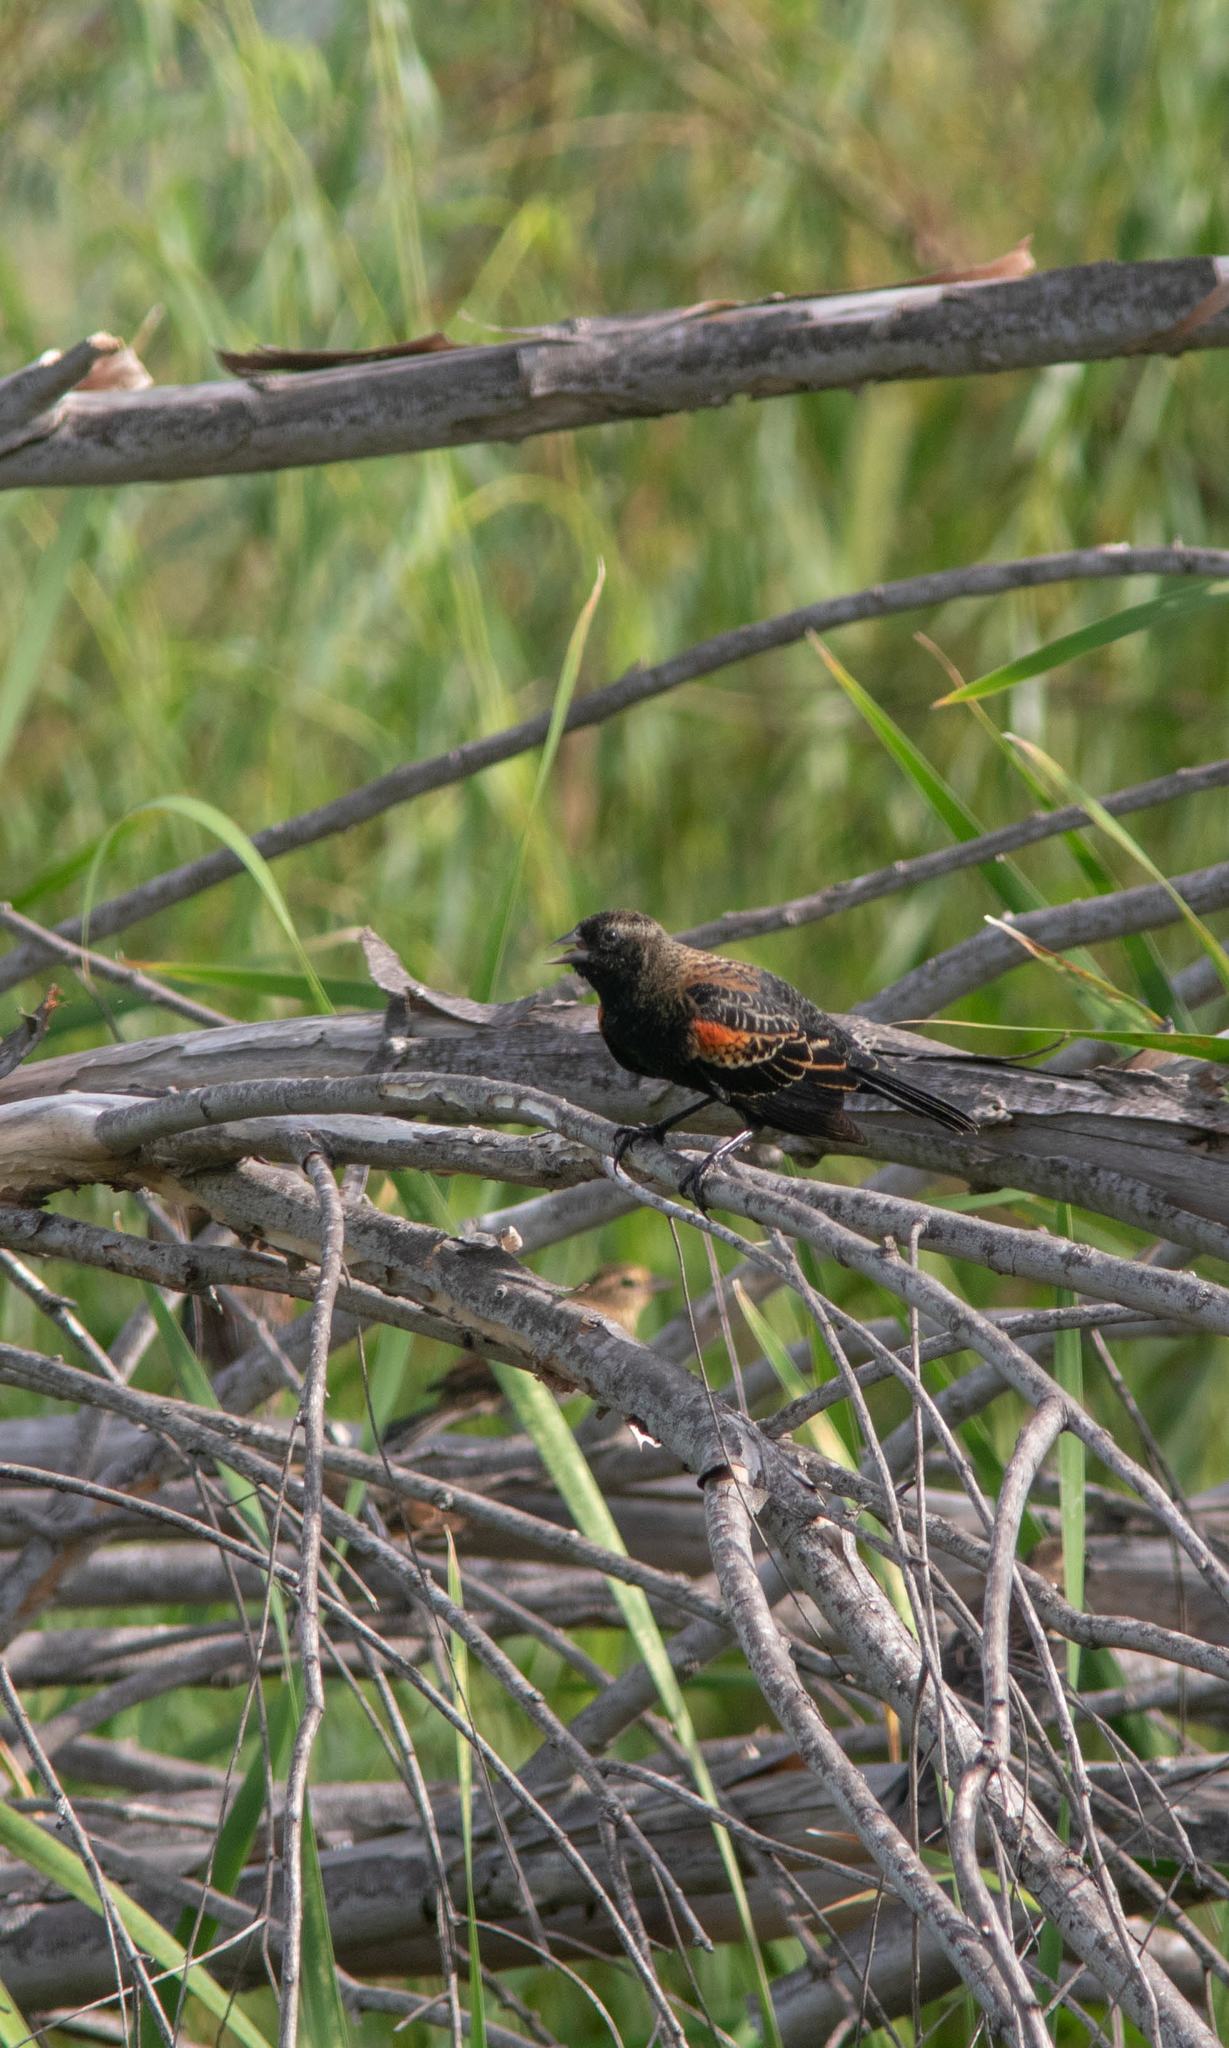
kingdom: Animalia
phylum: Chordata
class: Aves
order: Passeriformes
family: Icteridae
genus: Agelaius
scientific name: Agelaius phoeniceus
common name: Red-winged blackbird
